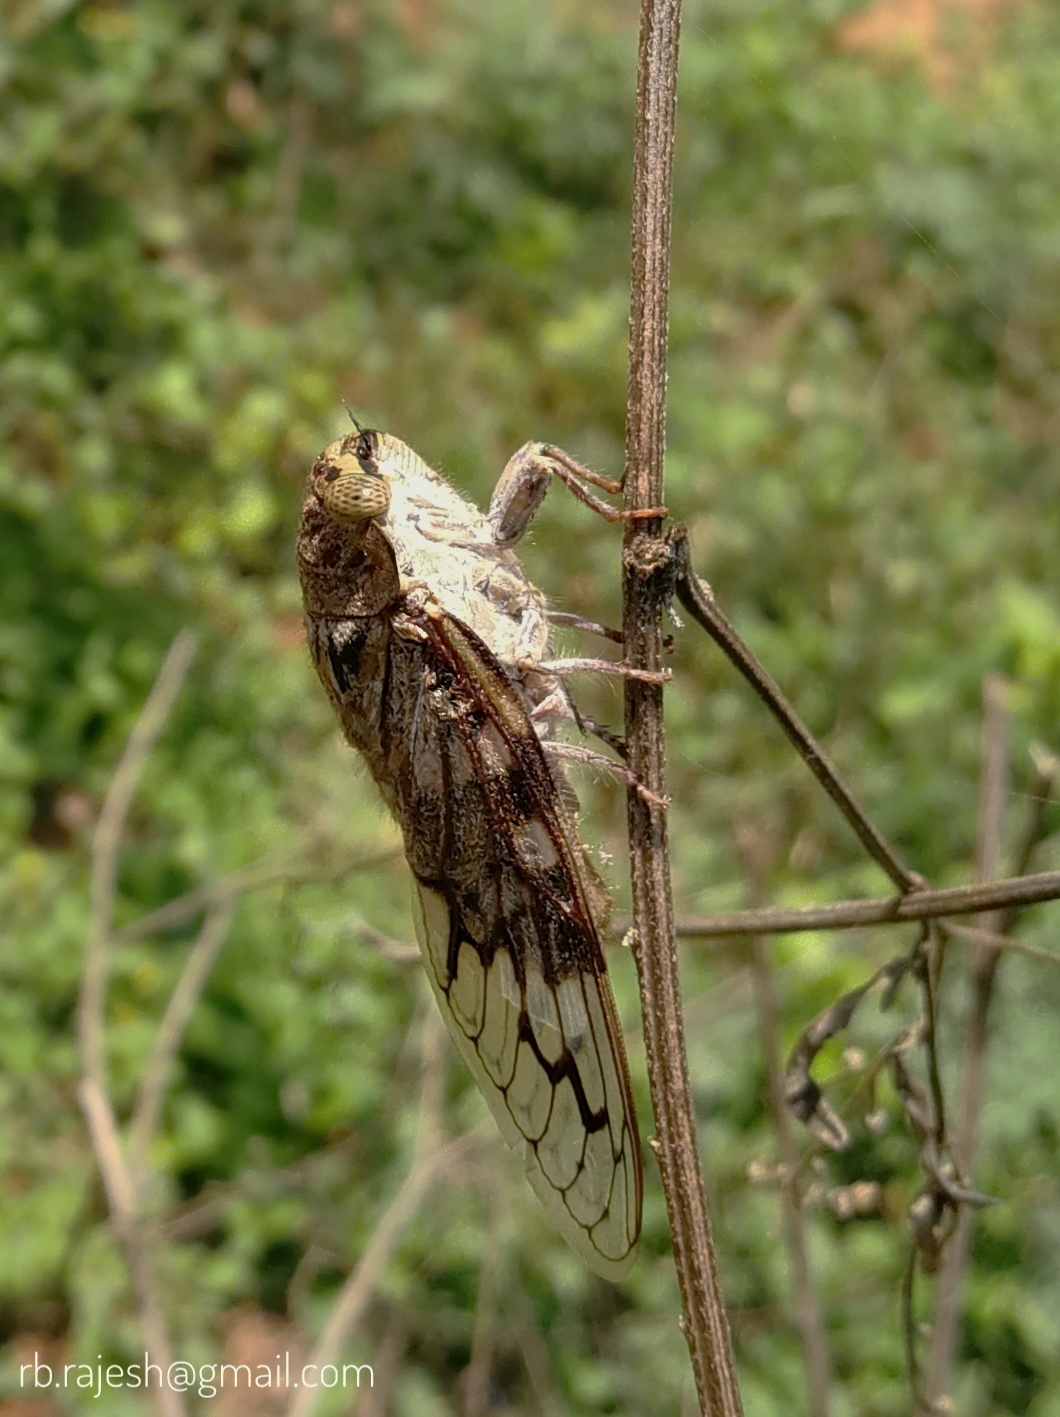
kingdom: Animalia
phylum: Arthropoda
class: Insecta
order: Hemiptera
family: Cicadidae
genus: Platypleura
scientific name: Platypleura octoguttata
